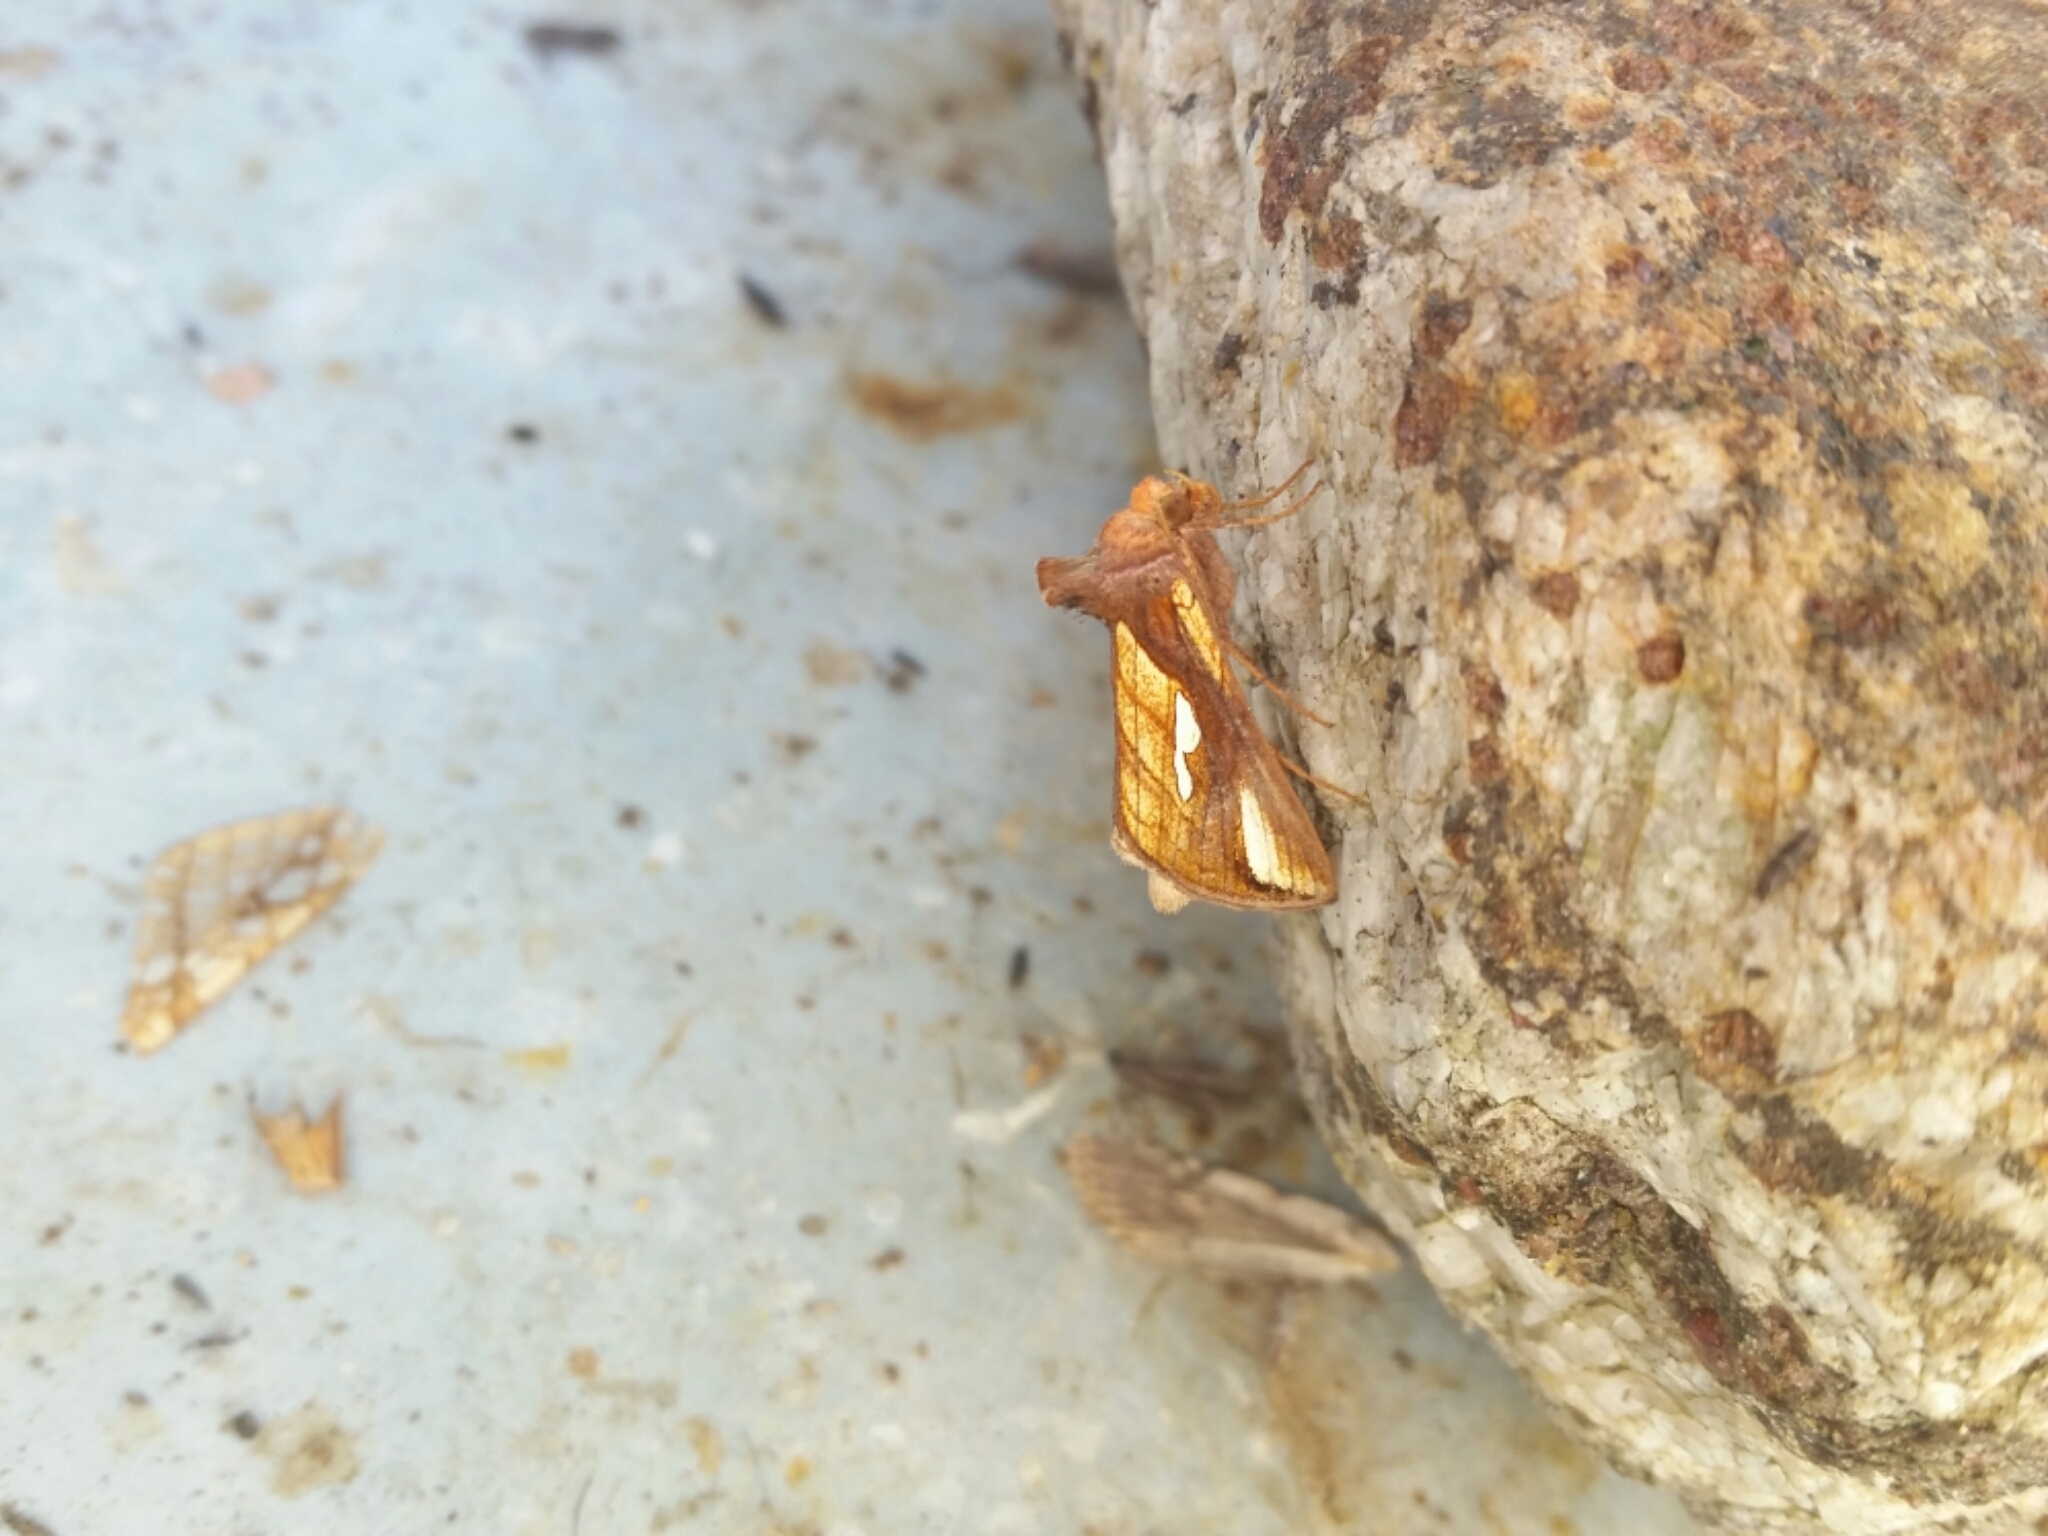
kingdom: Animalia
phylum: Arthropoda
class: Insecta
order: Lepidoptera
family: Noctuidae
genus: Plusia
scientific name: Plusia contexta
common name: Connected looper moth
